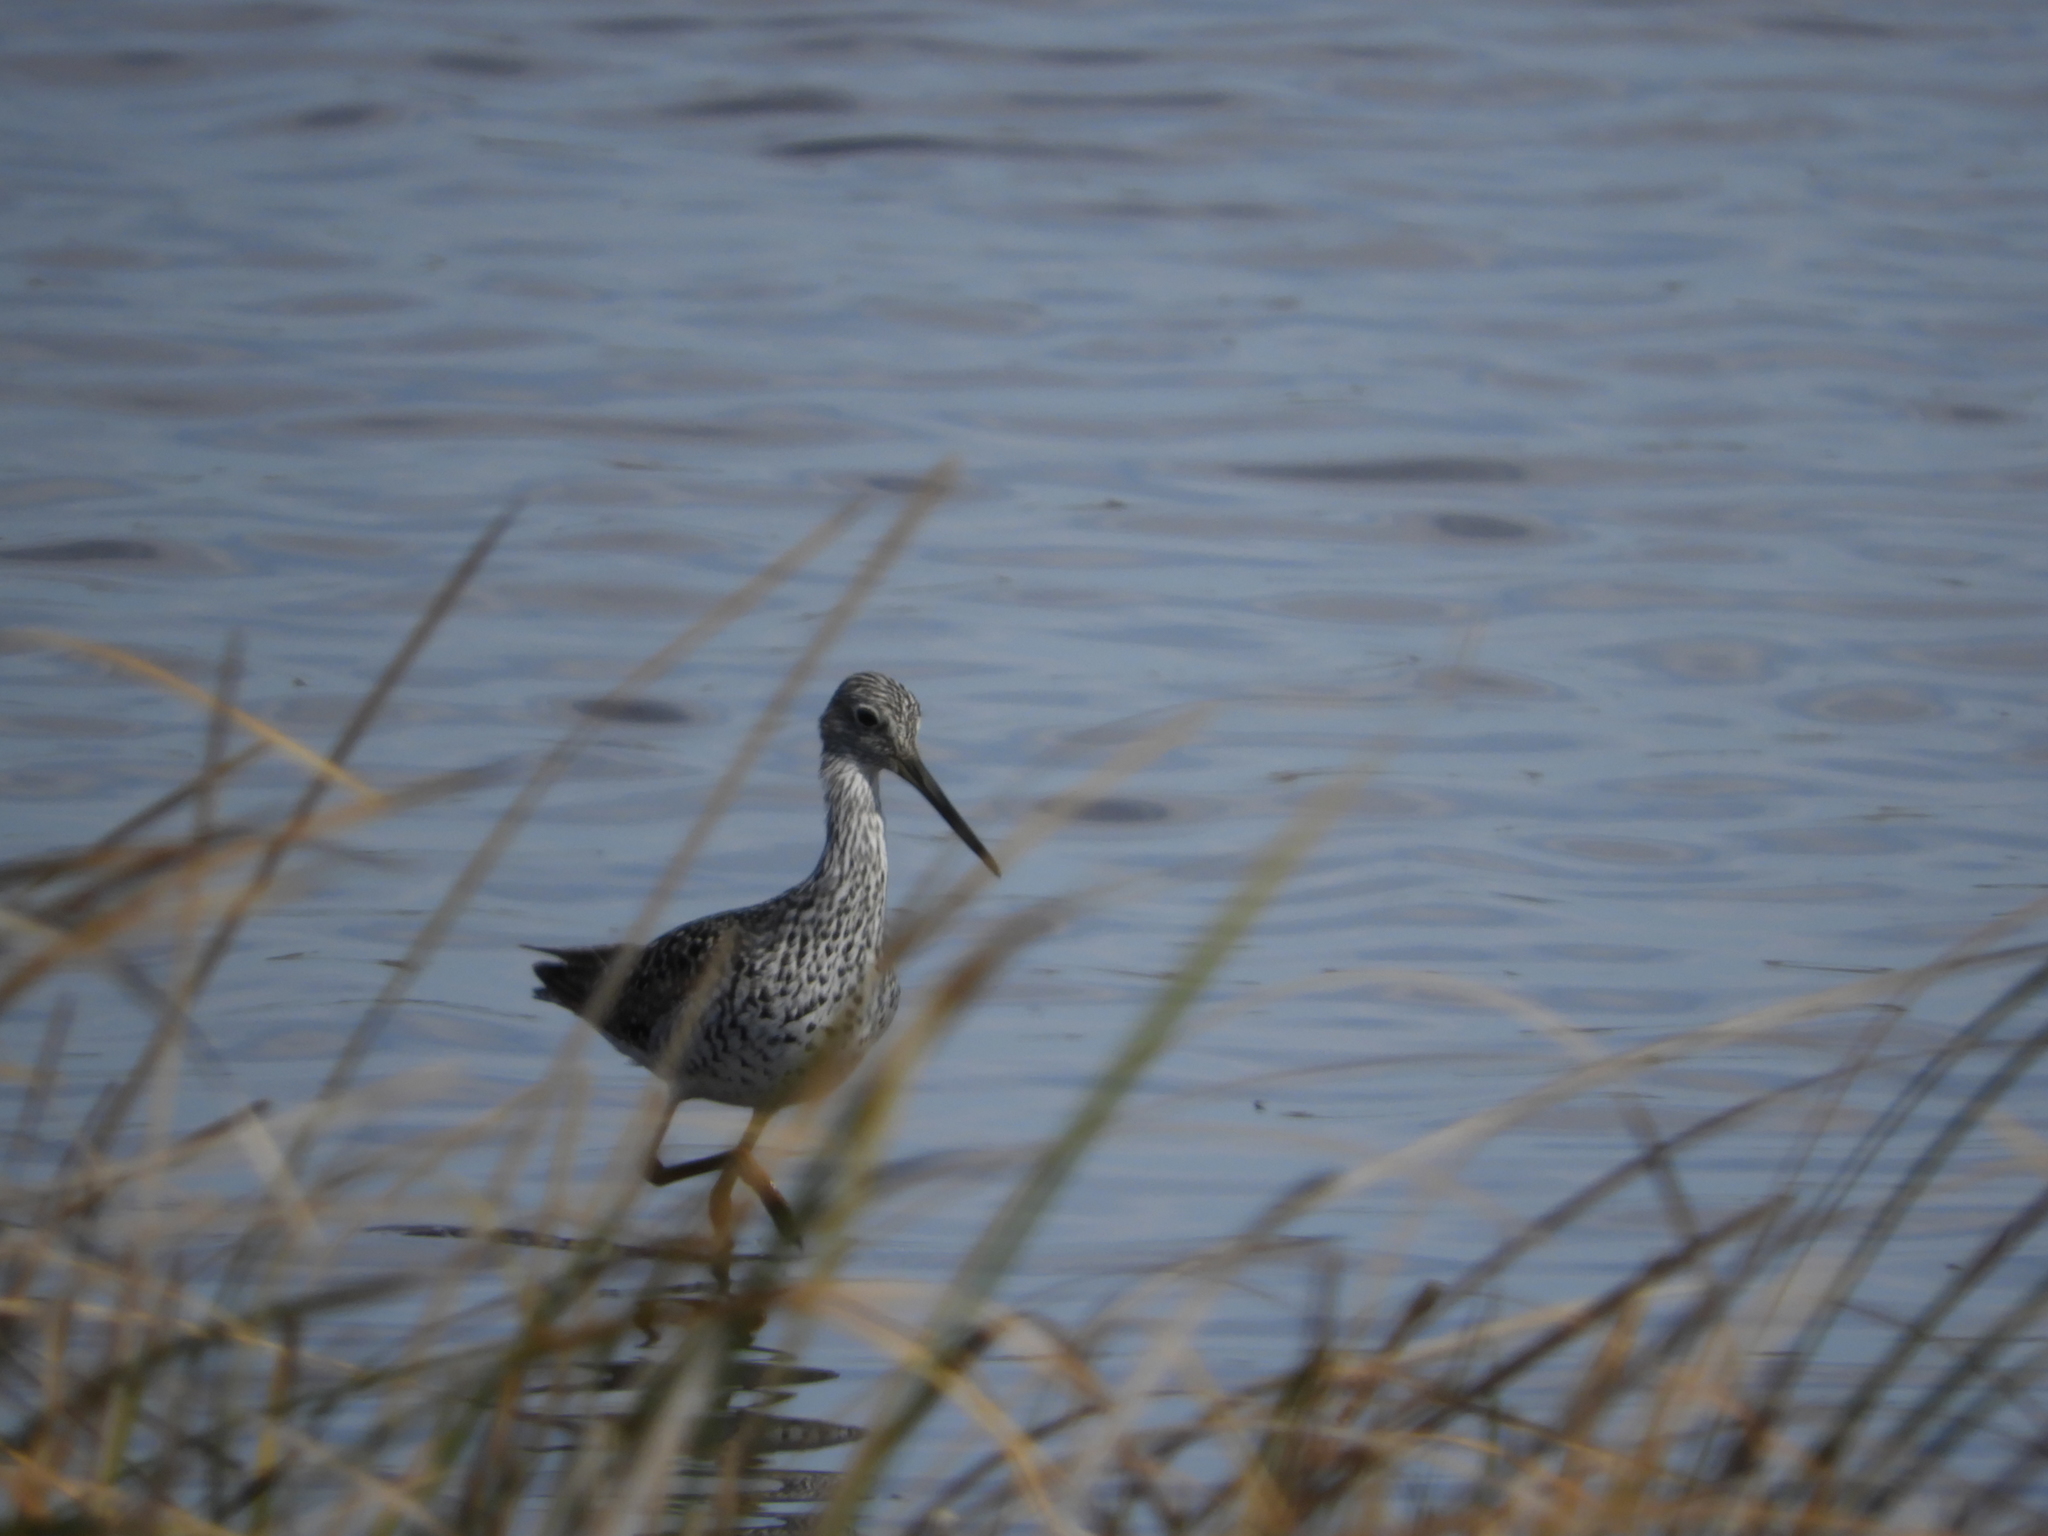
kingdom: Animalia
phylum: Chordata
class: Aves
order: Charadriiformes
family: Scolopacidae
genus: Tringa
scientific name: Tringa melanoleuca
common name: Greater yellowlegs
